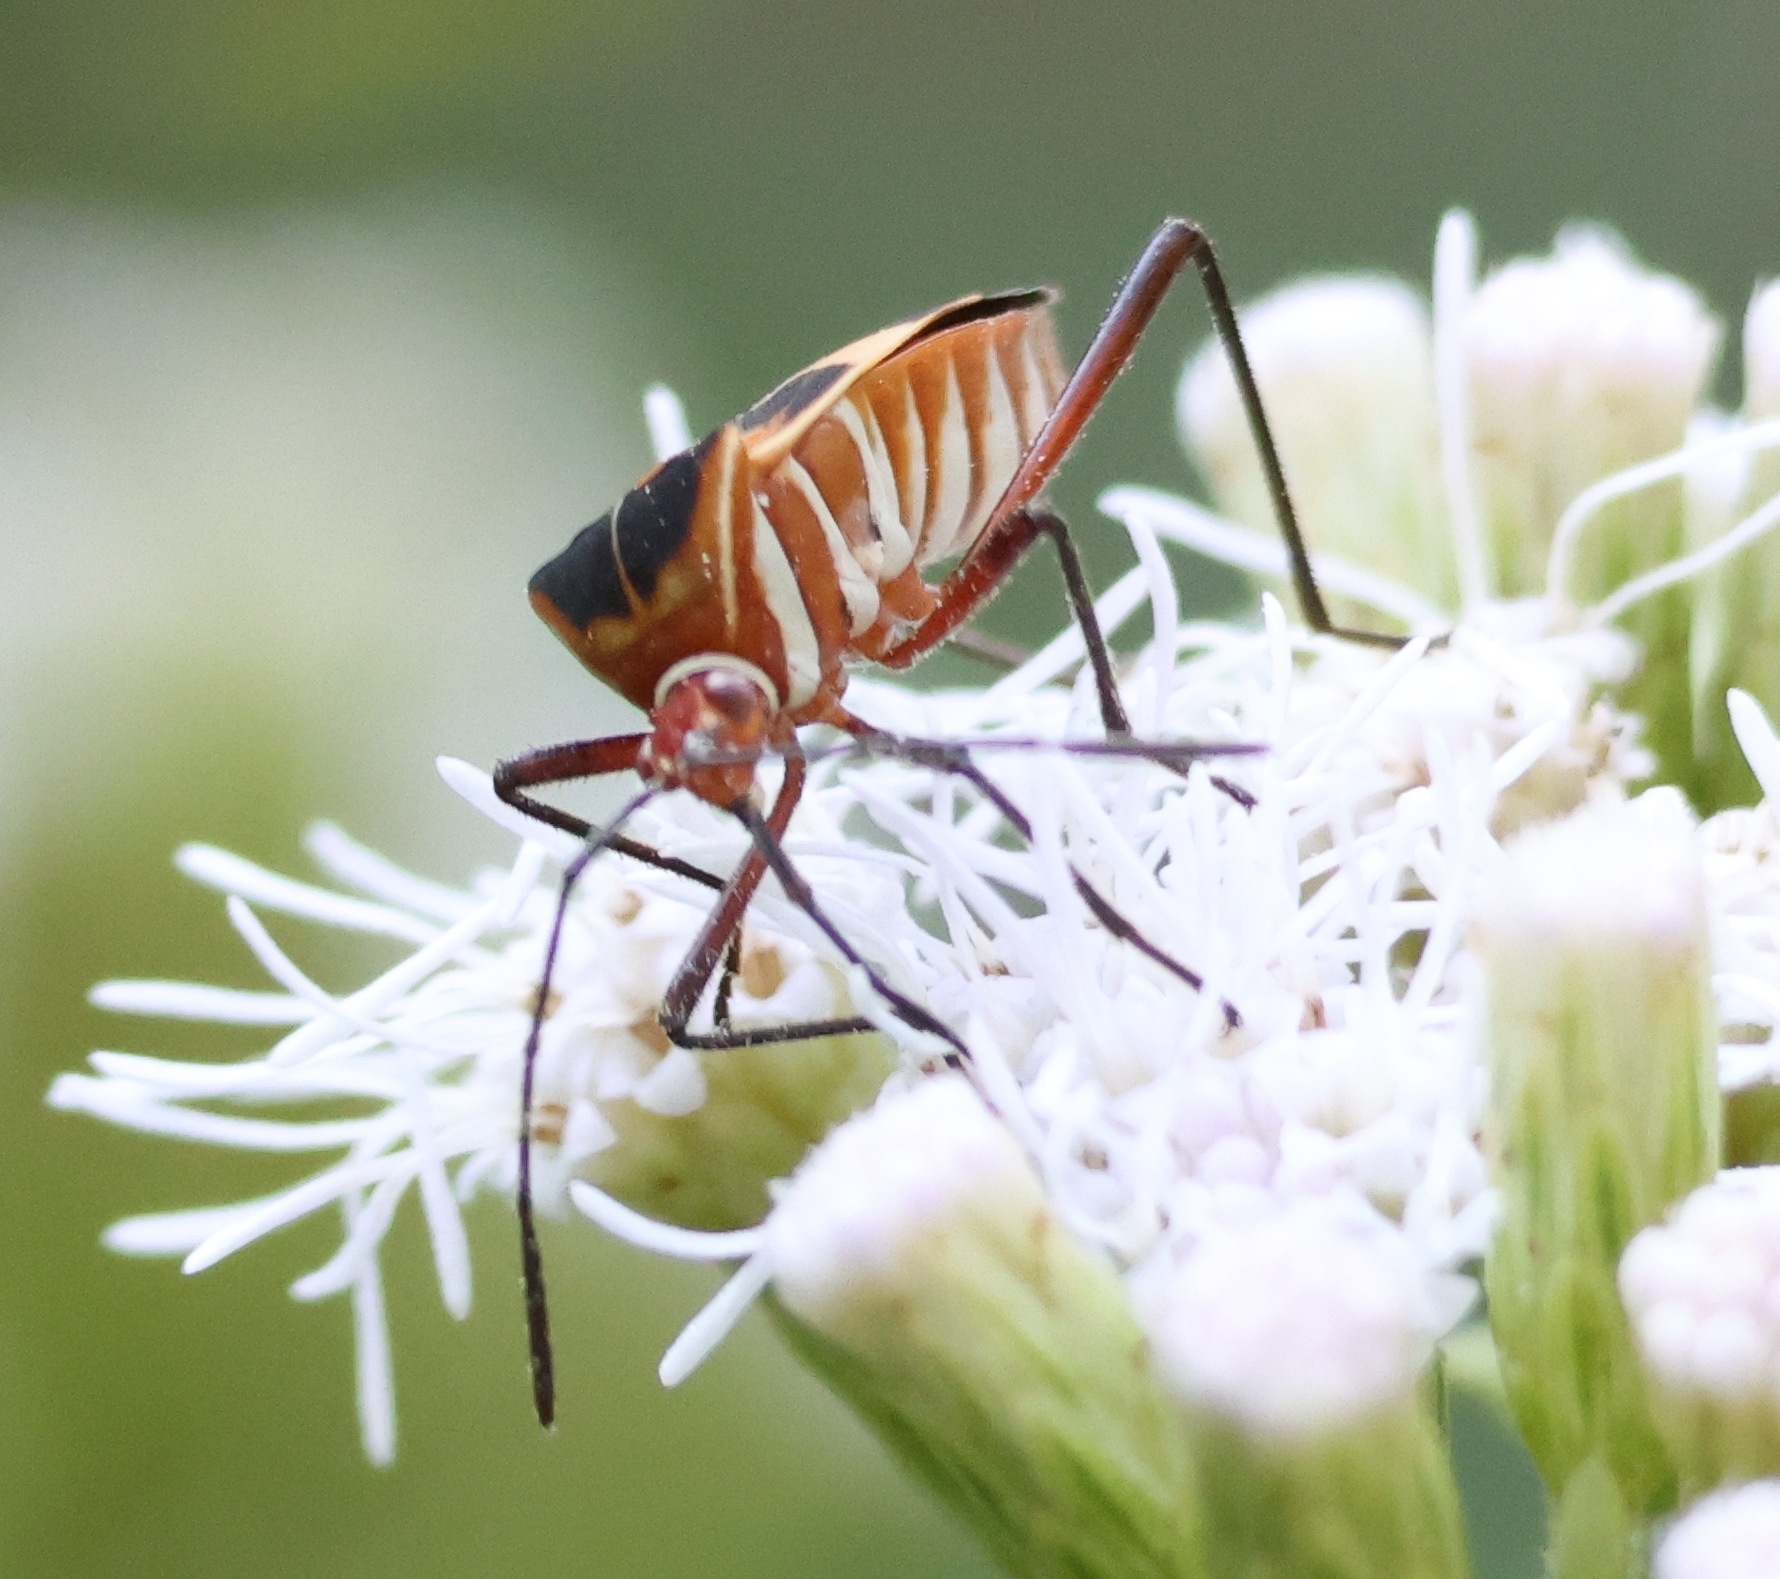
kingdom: Animalia
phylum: Arthropoda
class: Insecta
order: Hemiptera
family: Coreidae
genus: Hypselonotus
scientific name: Hypselonotus interruptus
